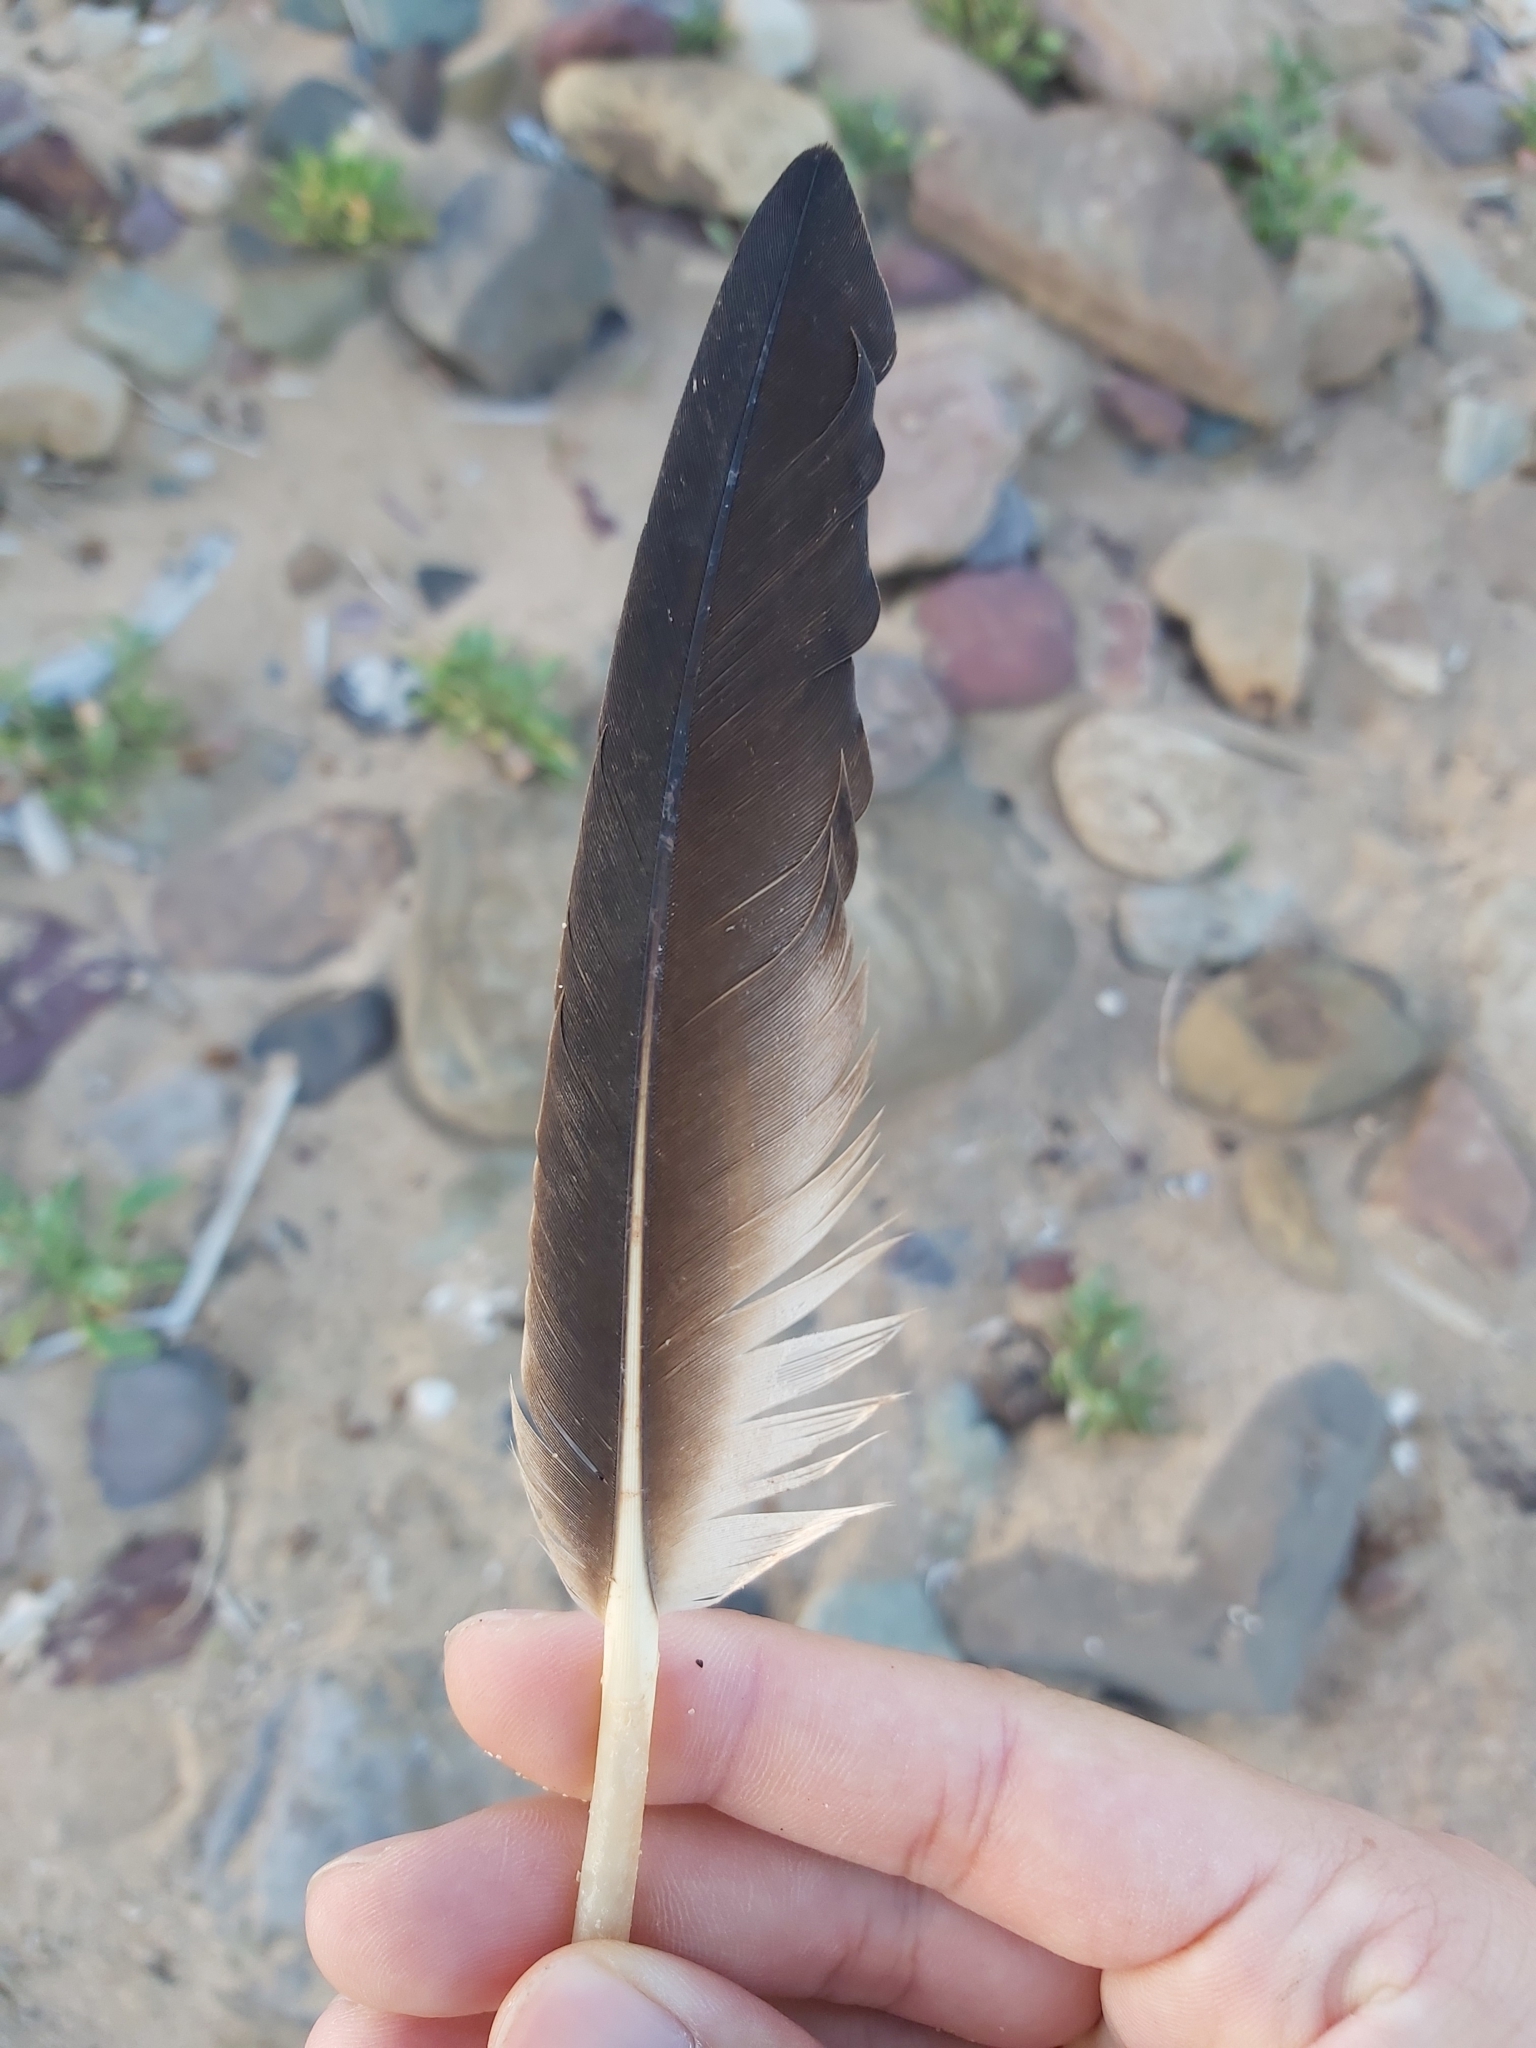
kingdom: Animalia
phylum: Chordata
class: Aves
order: Suliformes
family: Sulidae
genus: Morus
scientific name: Morus serrator
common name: Australasian gannet
